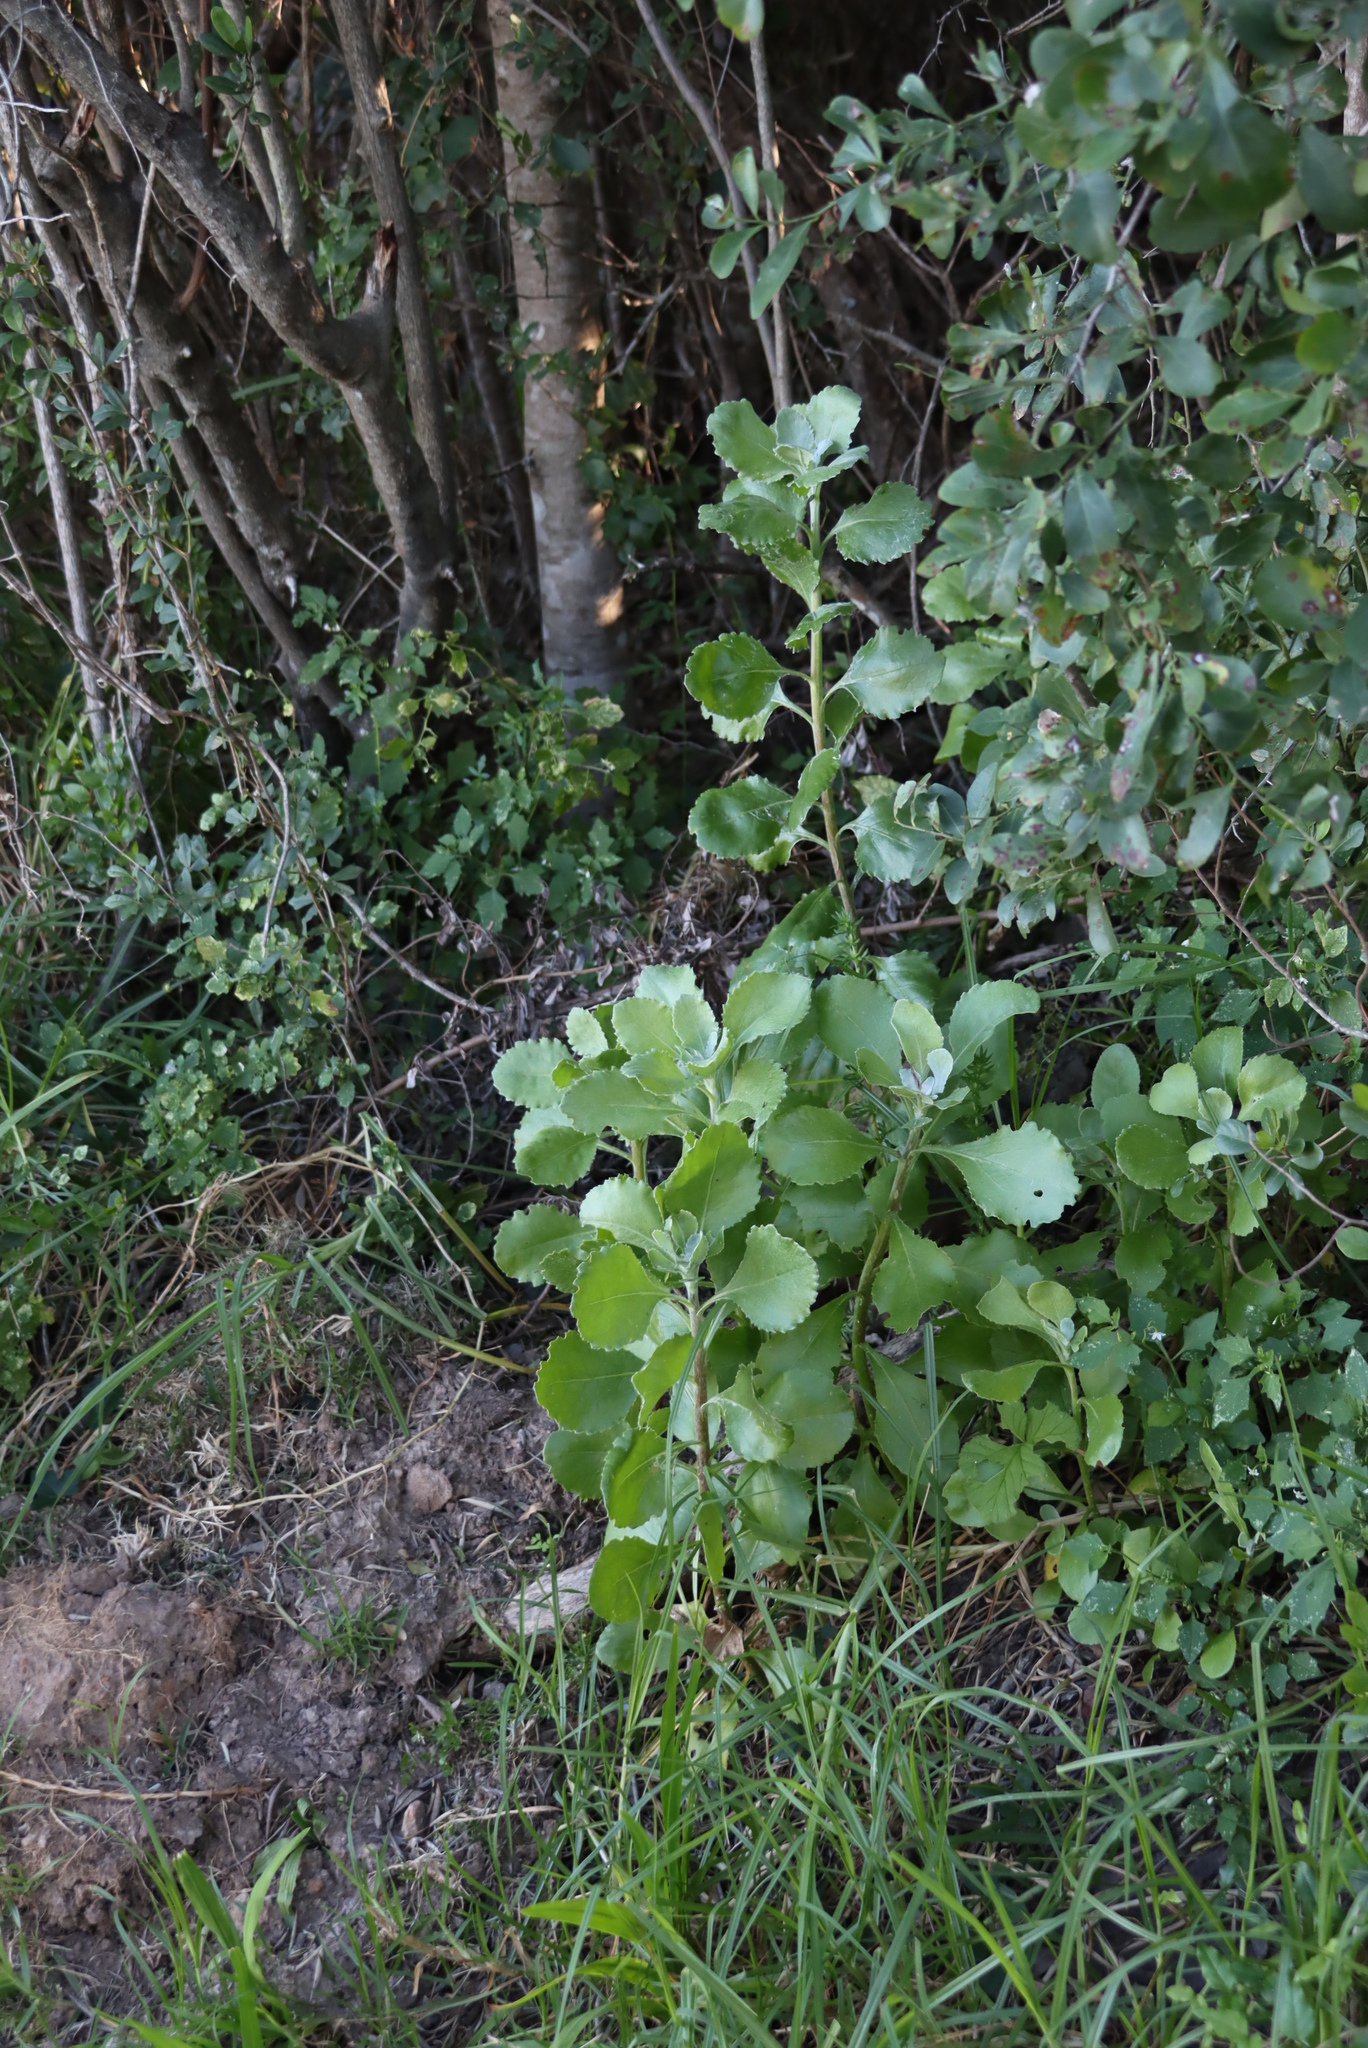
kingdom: Plantae
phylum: Tracheophyta
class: Magnoliopsida
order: Asterales
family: Asteraceae
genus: Osteospermum
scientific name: Osteospermum moniliferum
